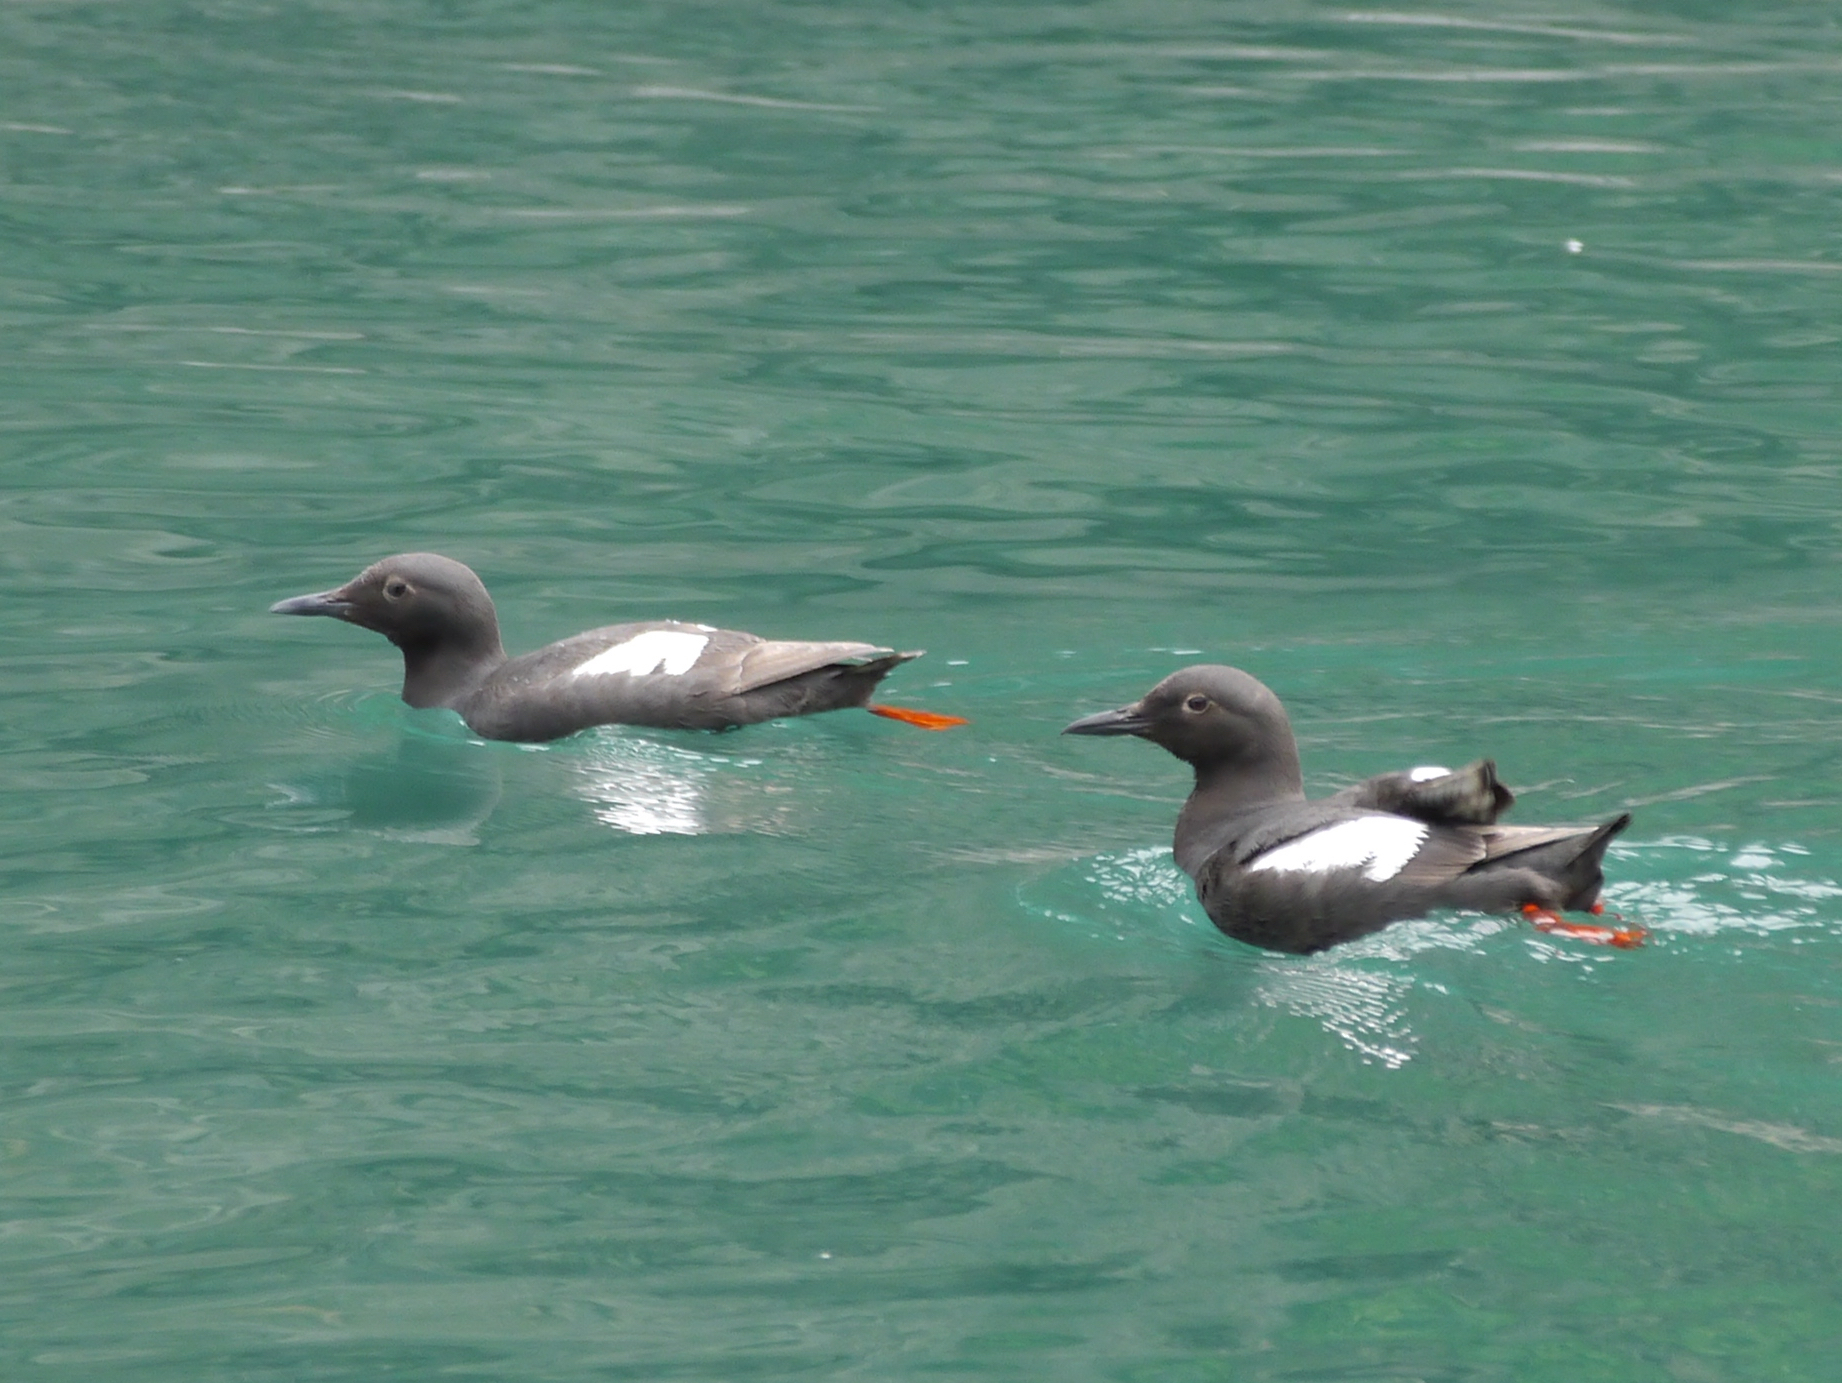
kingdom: Animalia
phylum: Chordata
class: Aves
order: Charadriiformes
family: Alcidae
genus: Cepphus
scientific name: Cepphus columba
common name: Pigeon guillemot
